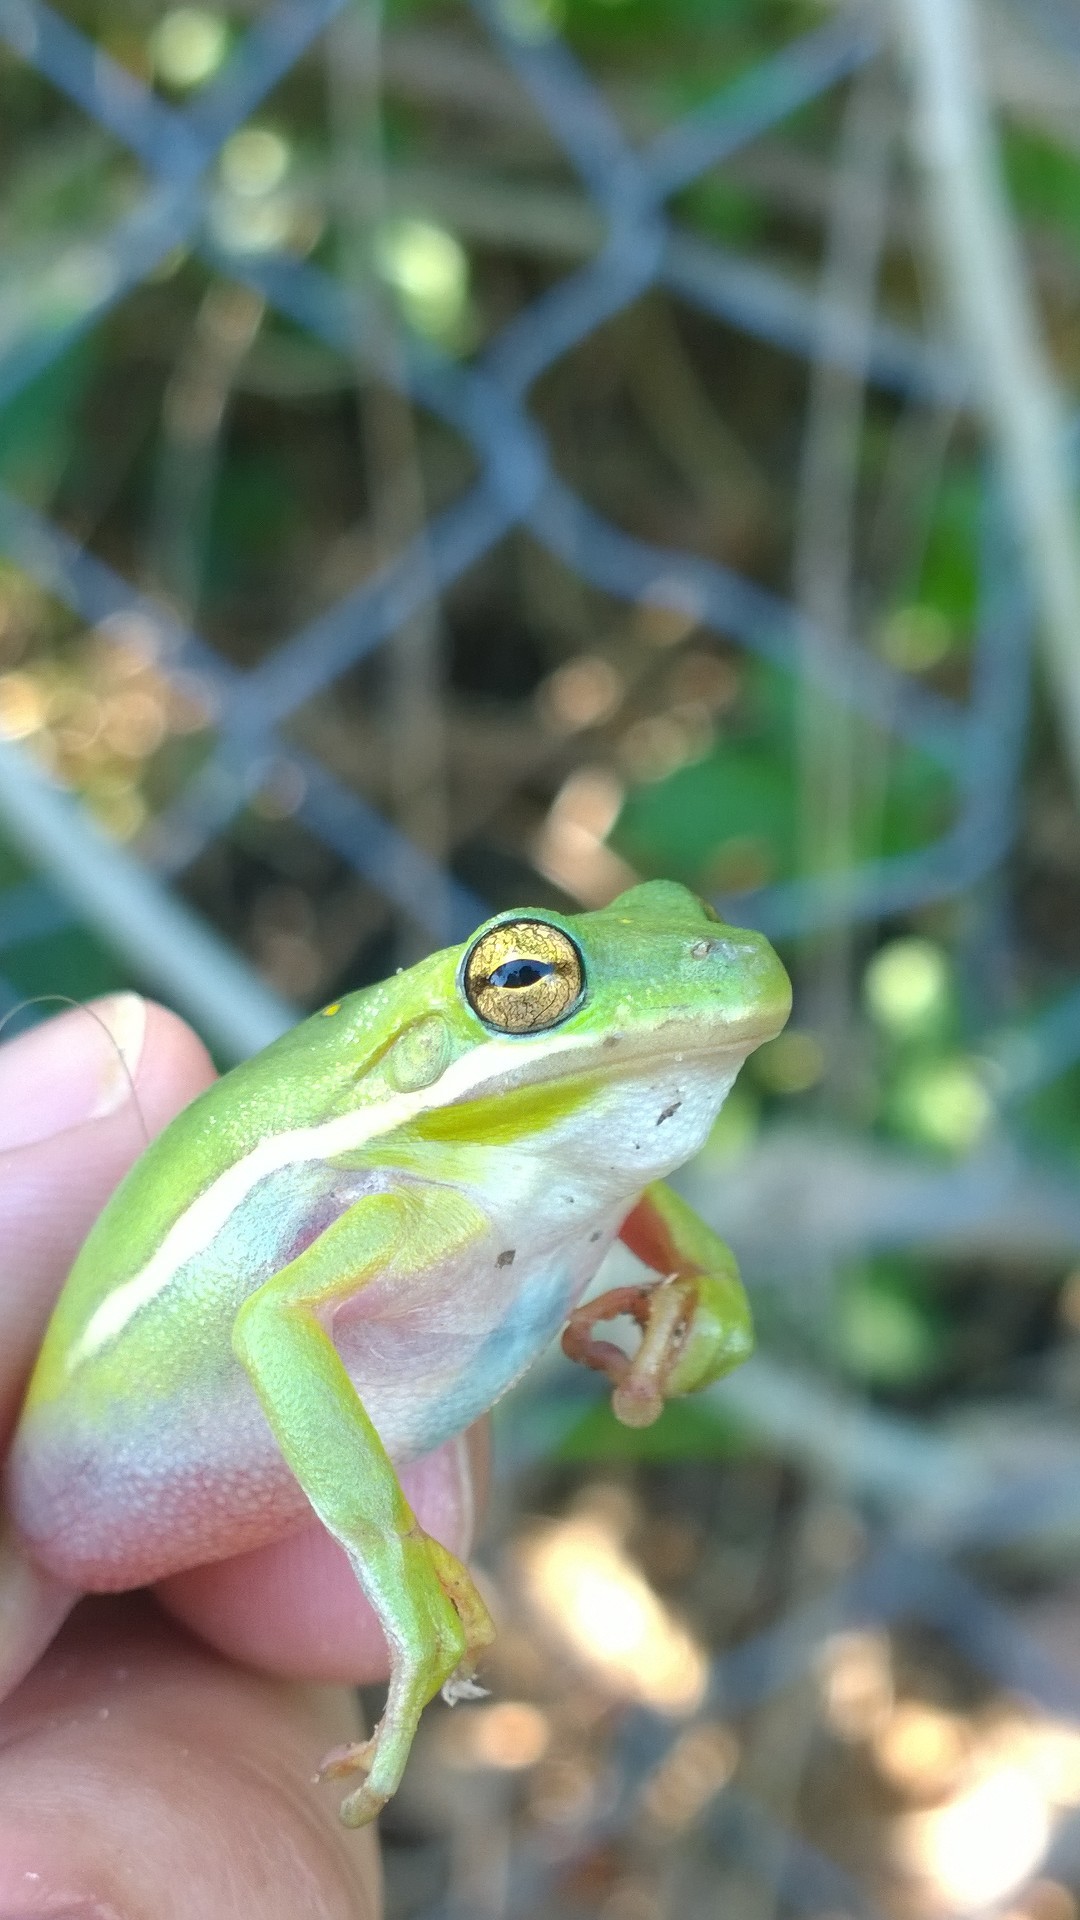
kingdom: Animalia
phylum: Chordata
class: Amphibia
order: Anura
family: Hylidae
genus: Dryophytes
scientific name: Dryophytes cinereus
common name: Green treefrog
